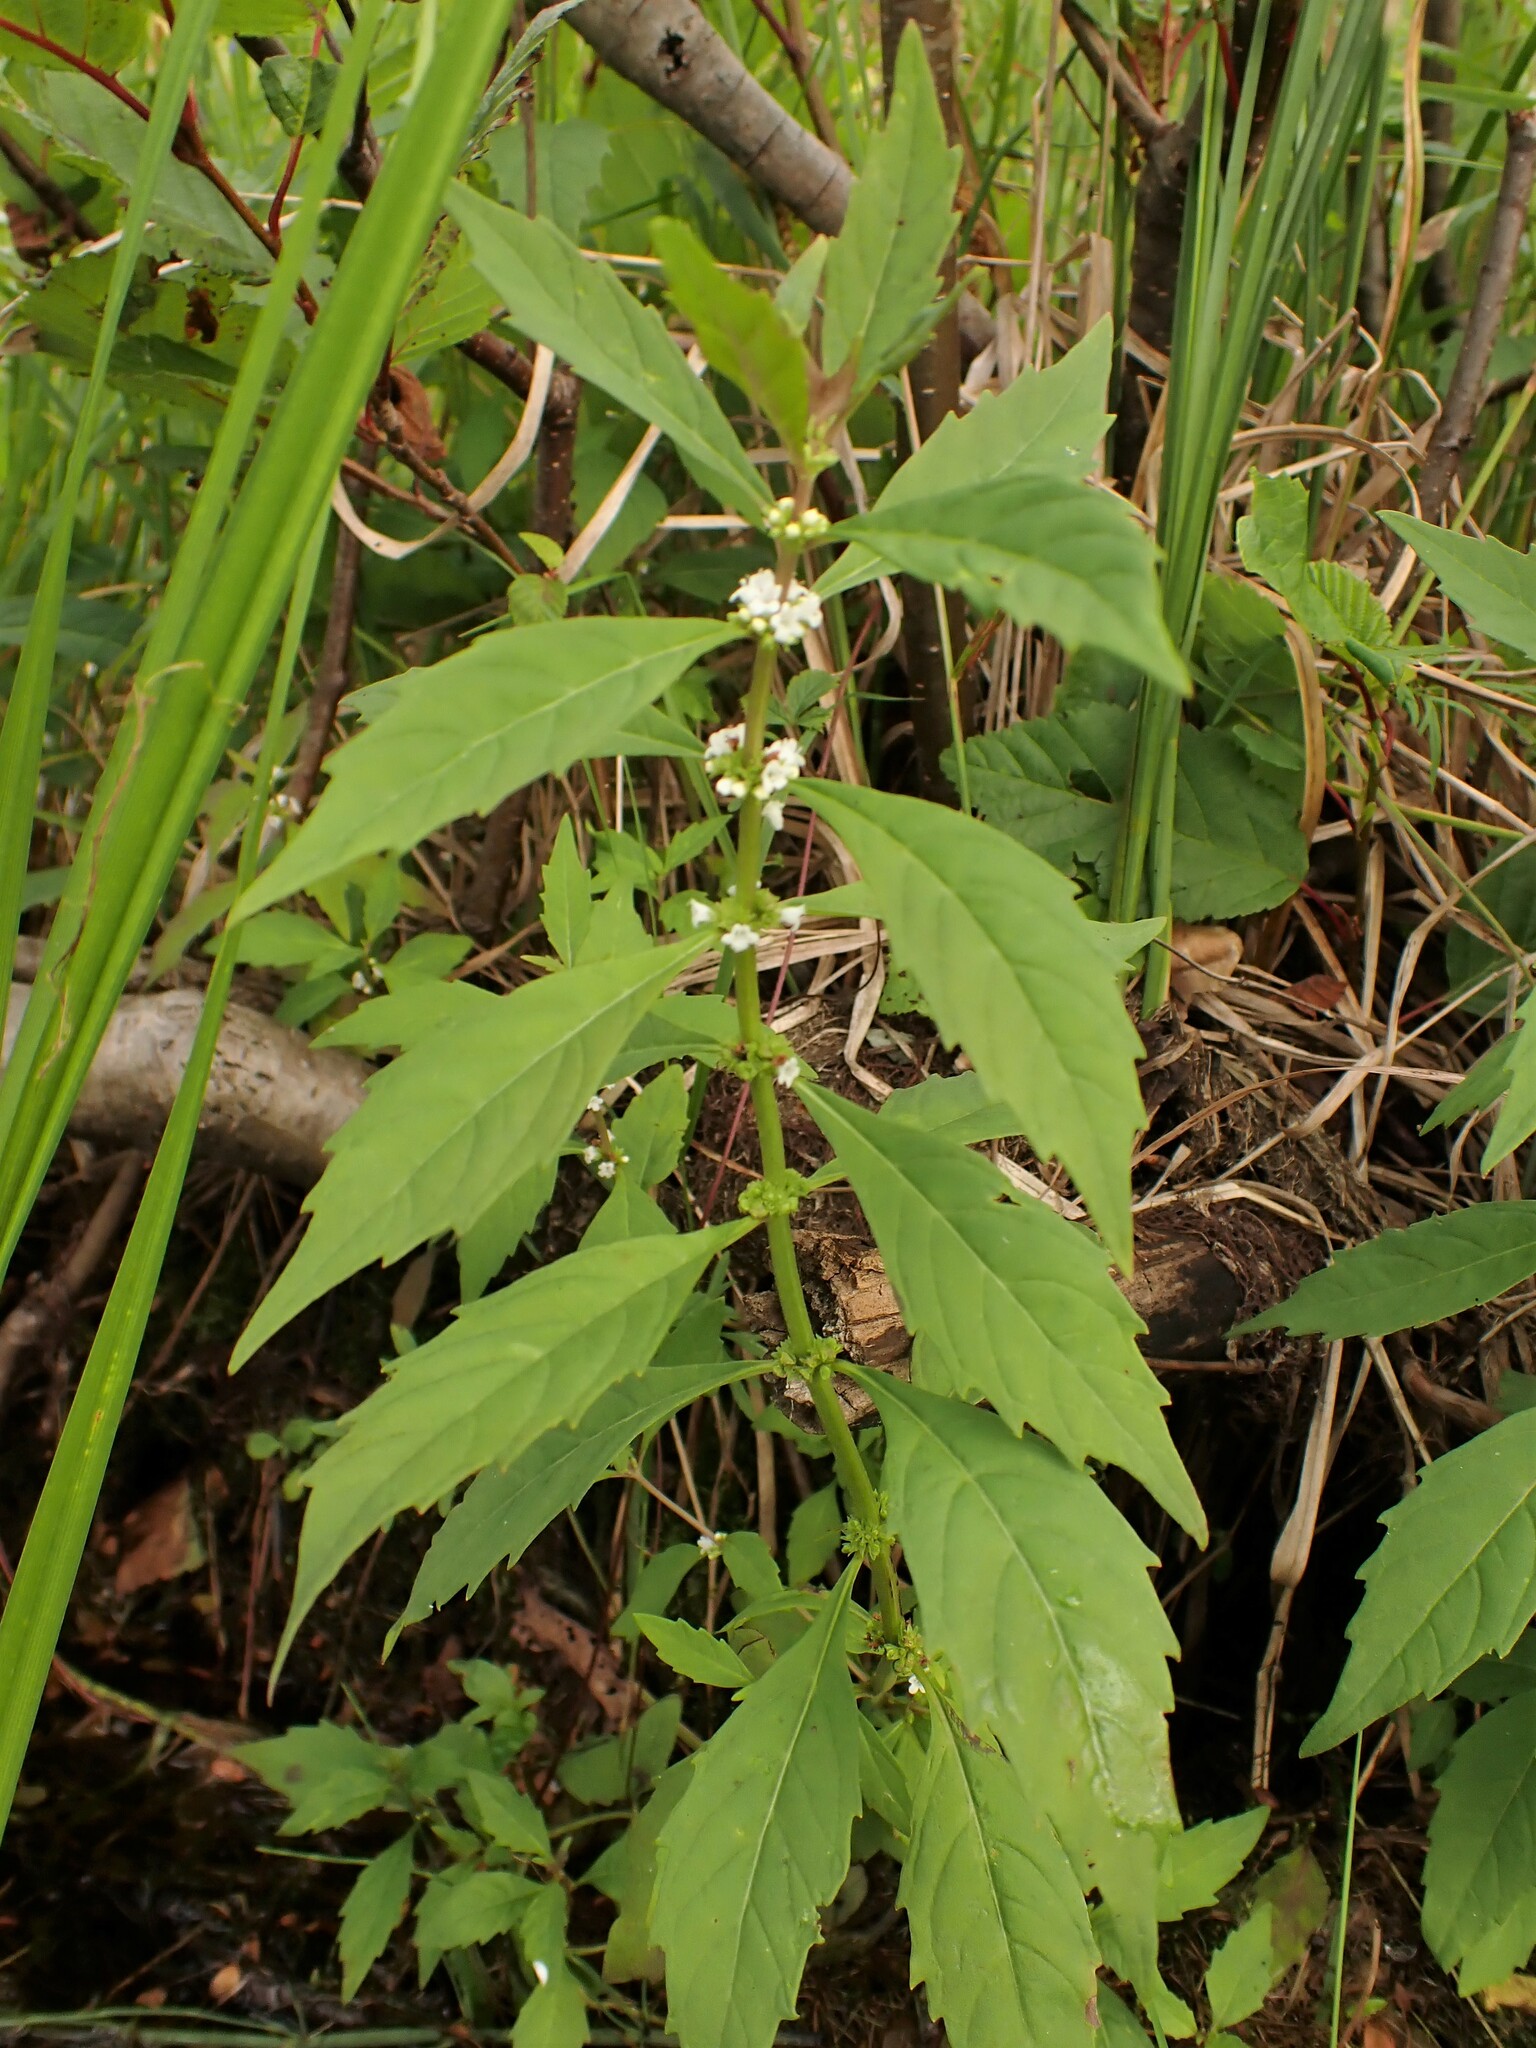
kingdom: Plantae
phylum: Tracheophyta
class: Magnoliopsida
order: Lamiales
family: Lamiaceae
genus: Lycopus
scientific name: Lycopus uniflorus
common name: Northern bugleweed
